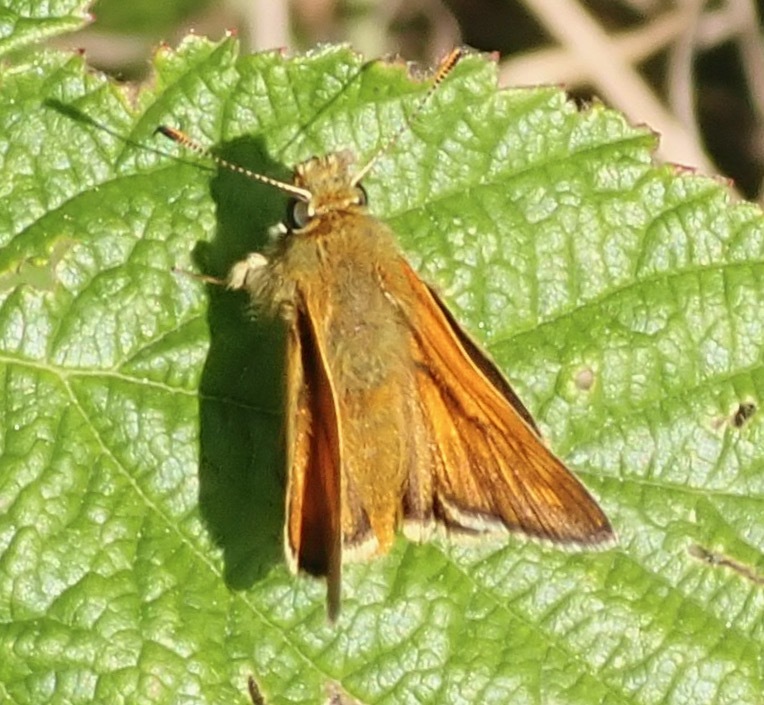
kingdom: Animalia
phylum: Arthropoda
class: Insecta
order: Lepidoptera
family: Hesperiidae
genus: Ochlodes
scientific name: Ochlodes venata
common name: Large skipper
